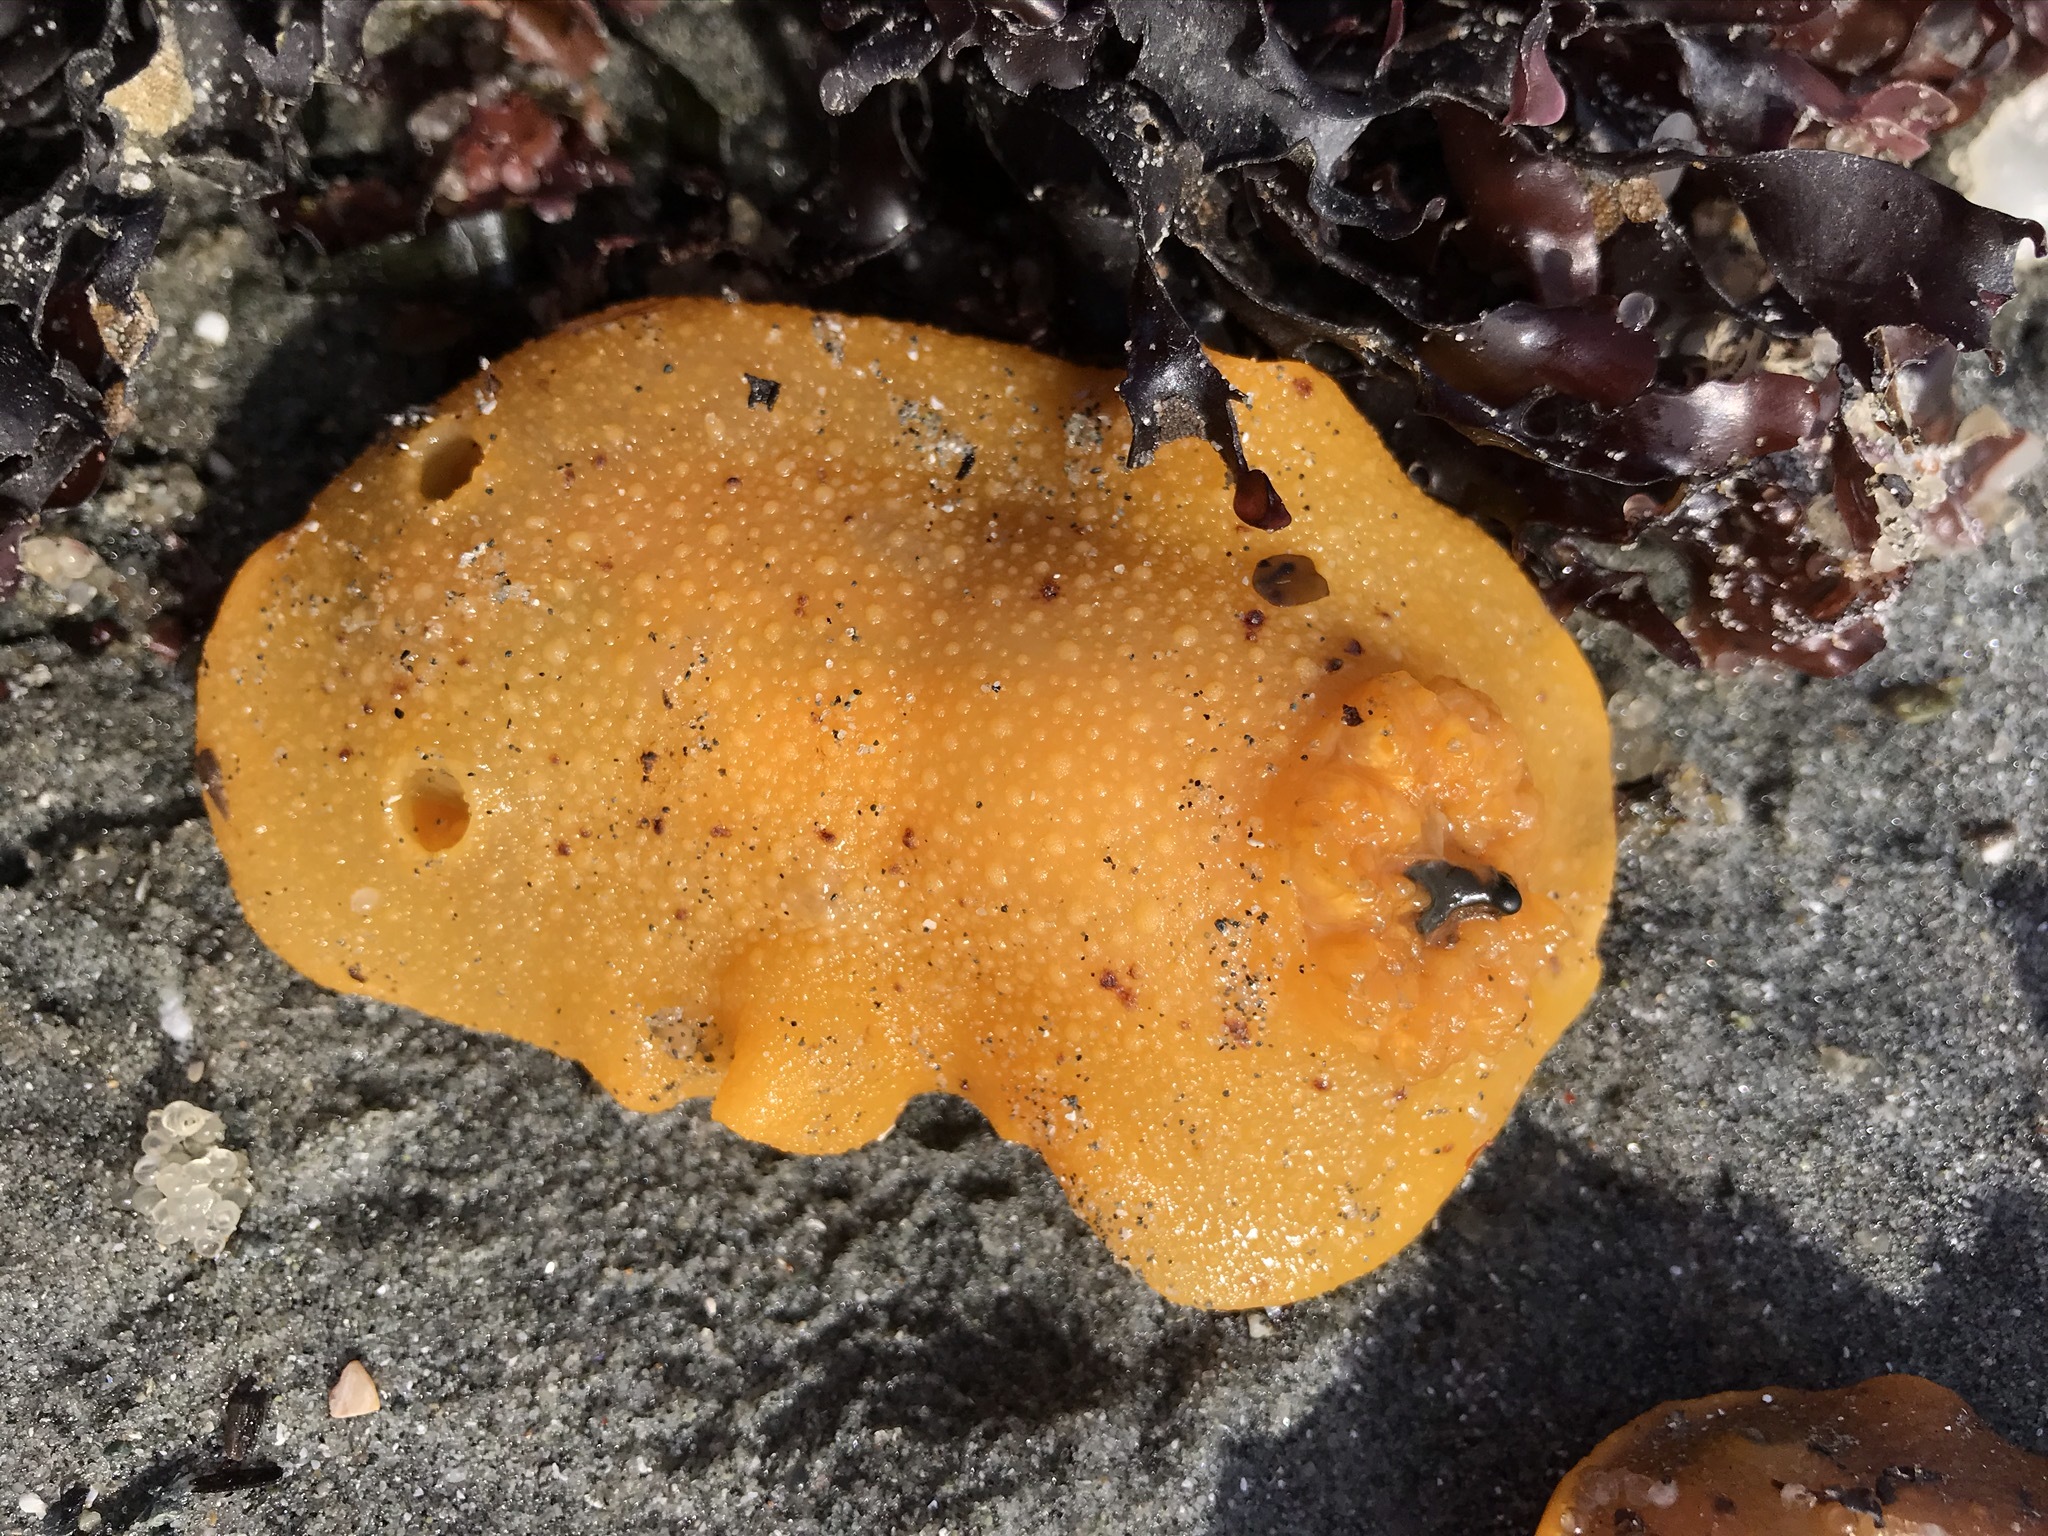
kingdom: Animalia
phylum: Mollusca
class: Gastropoda
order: Nudibranchia
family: Dorididae
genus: Doris
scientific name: Doris montereyensis
